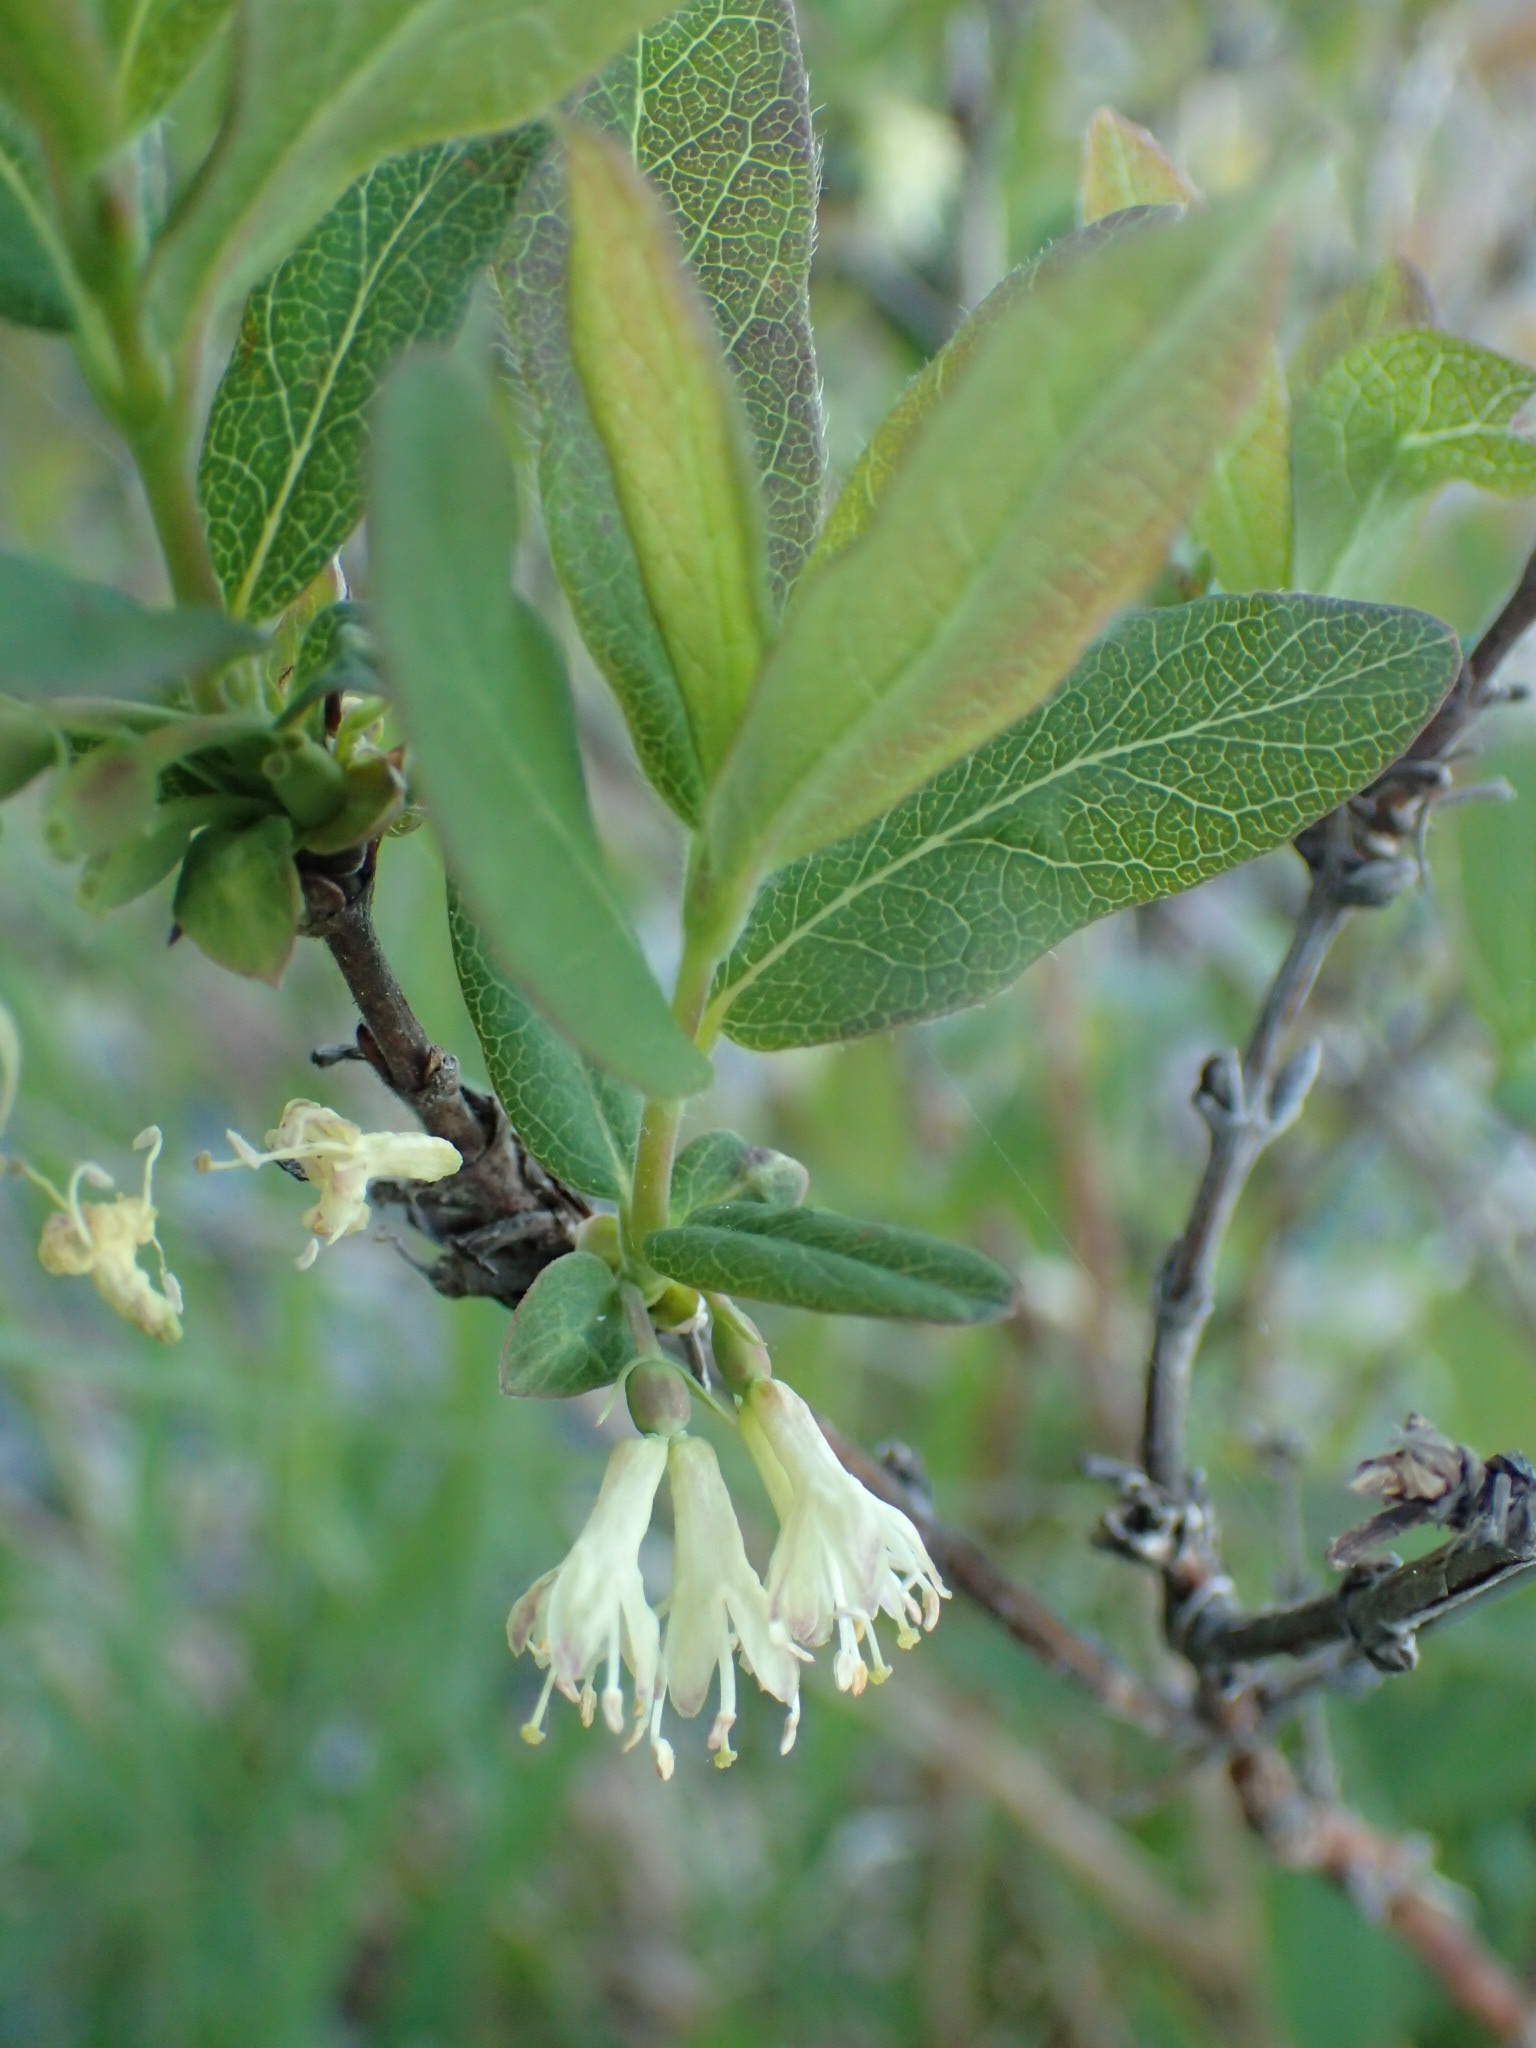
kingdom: Plantae
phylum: Tracheophyta
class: Magnoliopsida
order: Dipsacales
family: Caprifoliaceae
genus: Lonicera
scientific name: Lonicera villosa
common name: Mountain fly-honeysuckle
